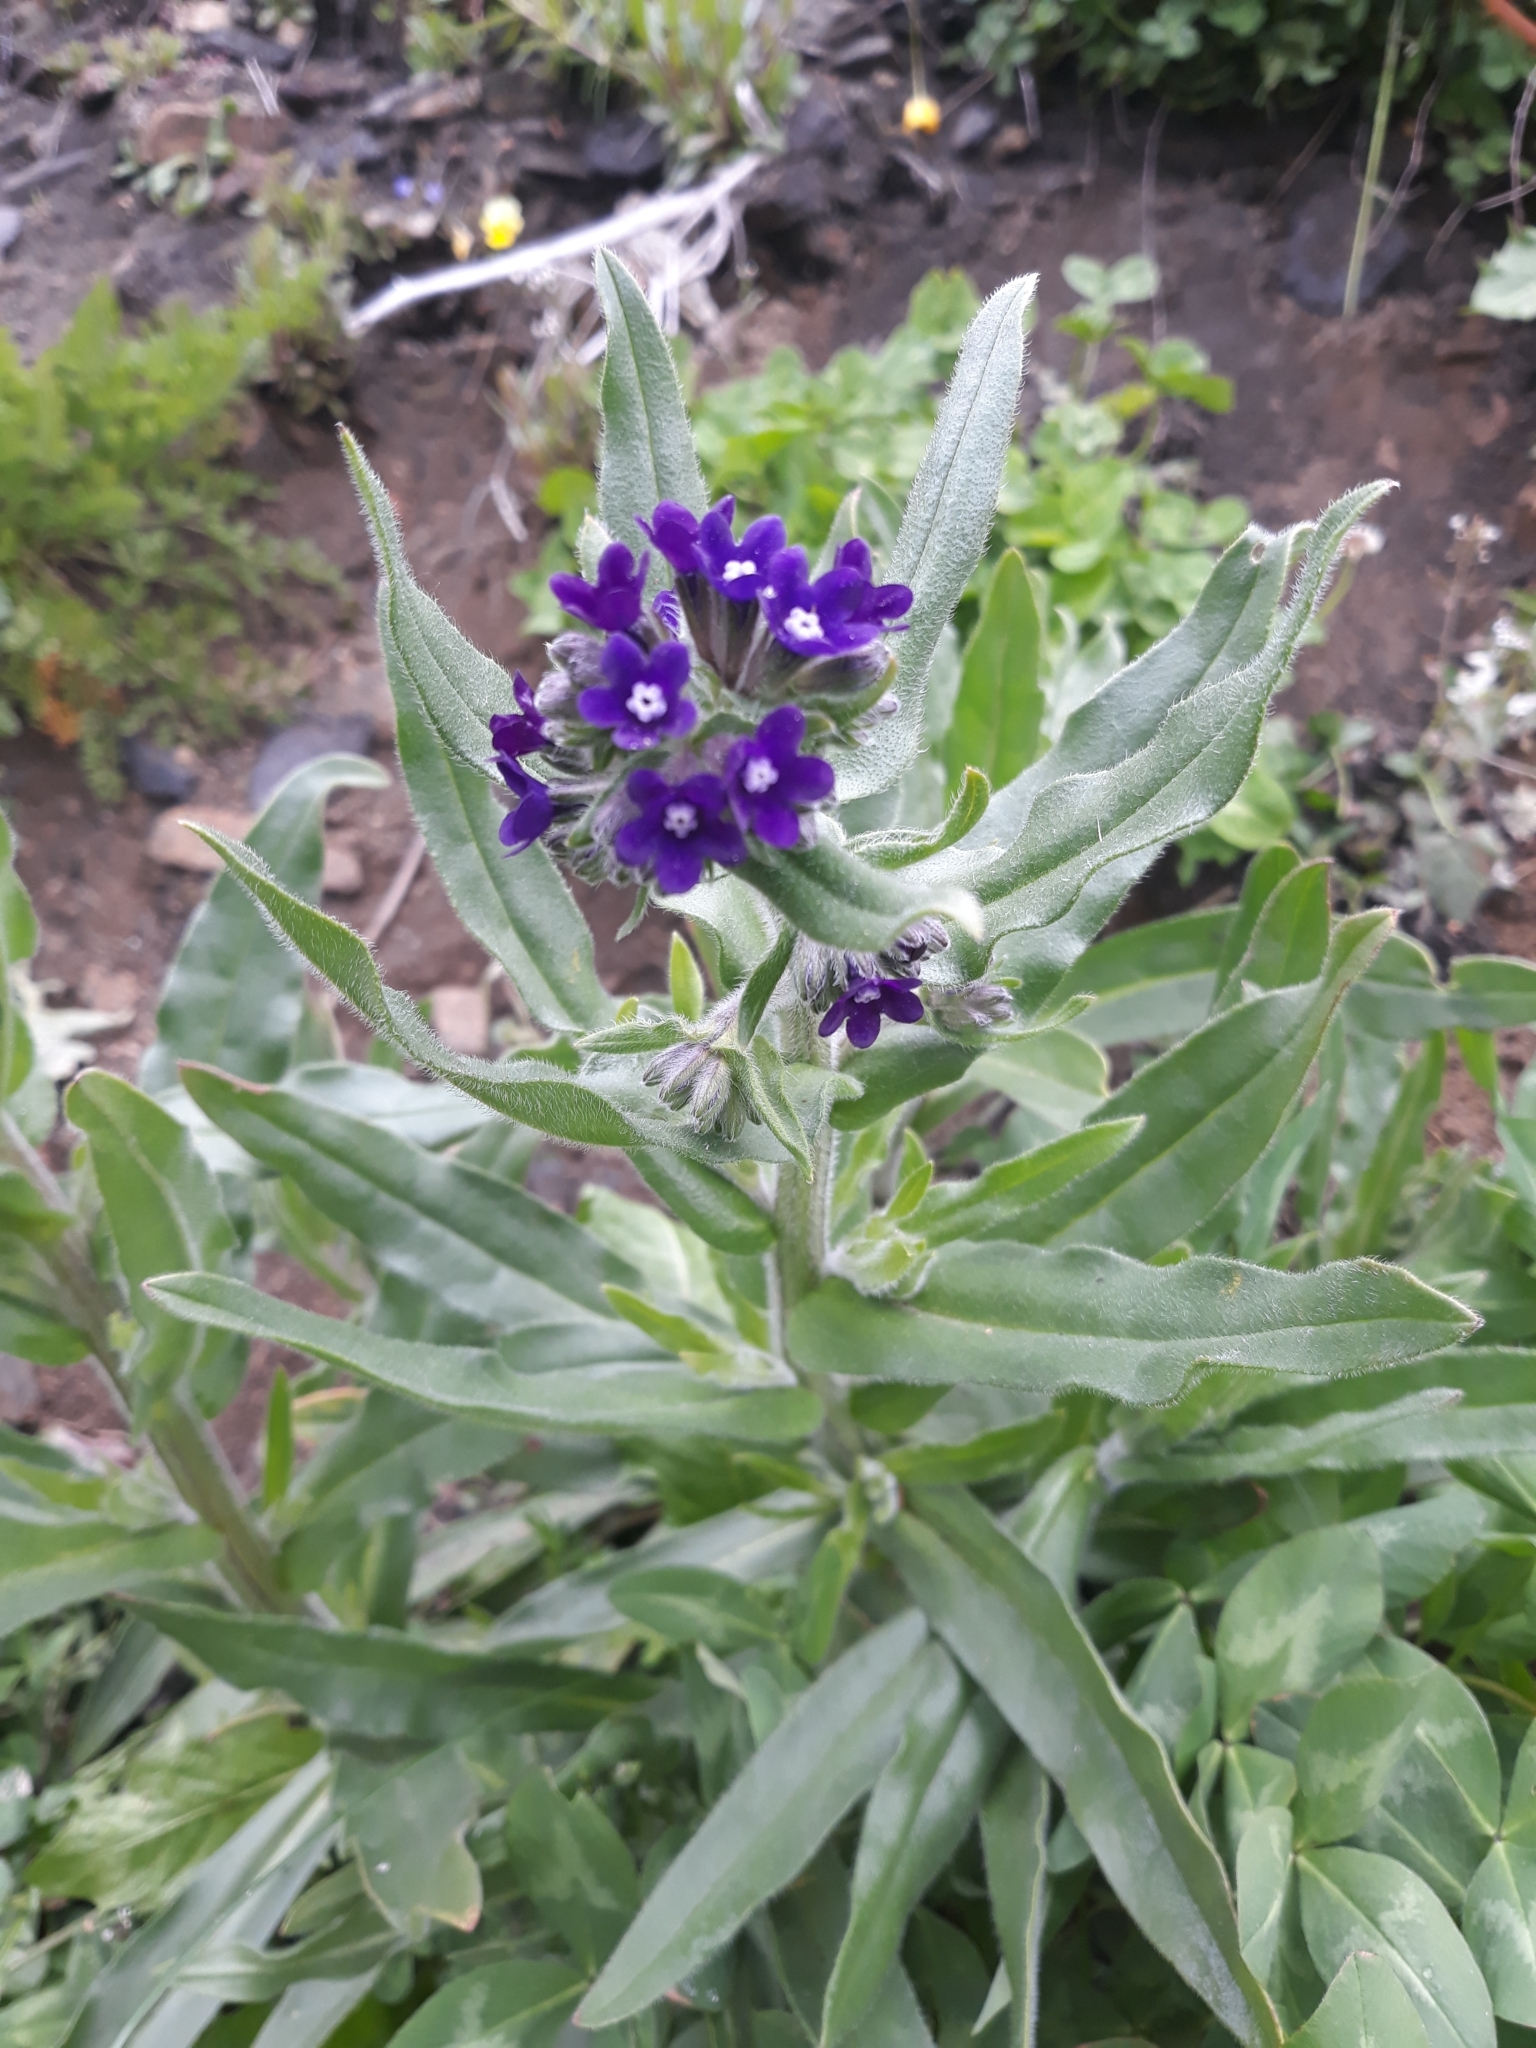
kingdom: Plantae
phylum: Tracheophyta
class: Magnoliopsida
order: Boraginales
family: Boraginaceae
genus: Anchusa
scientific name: Anchusa officinalis
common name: Alkanet
